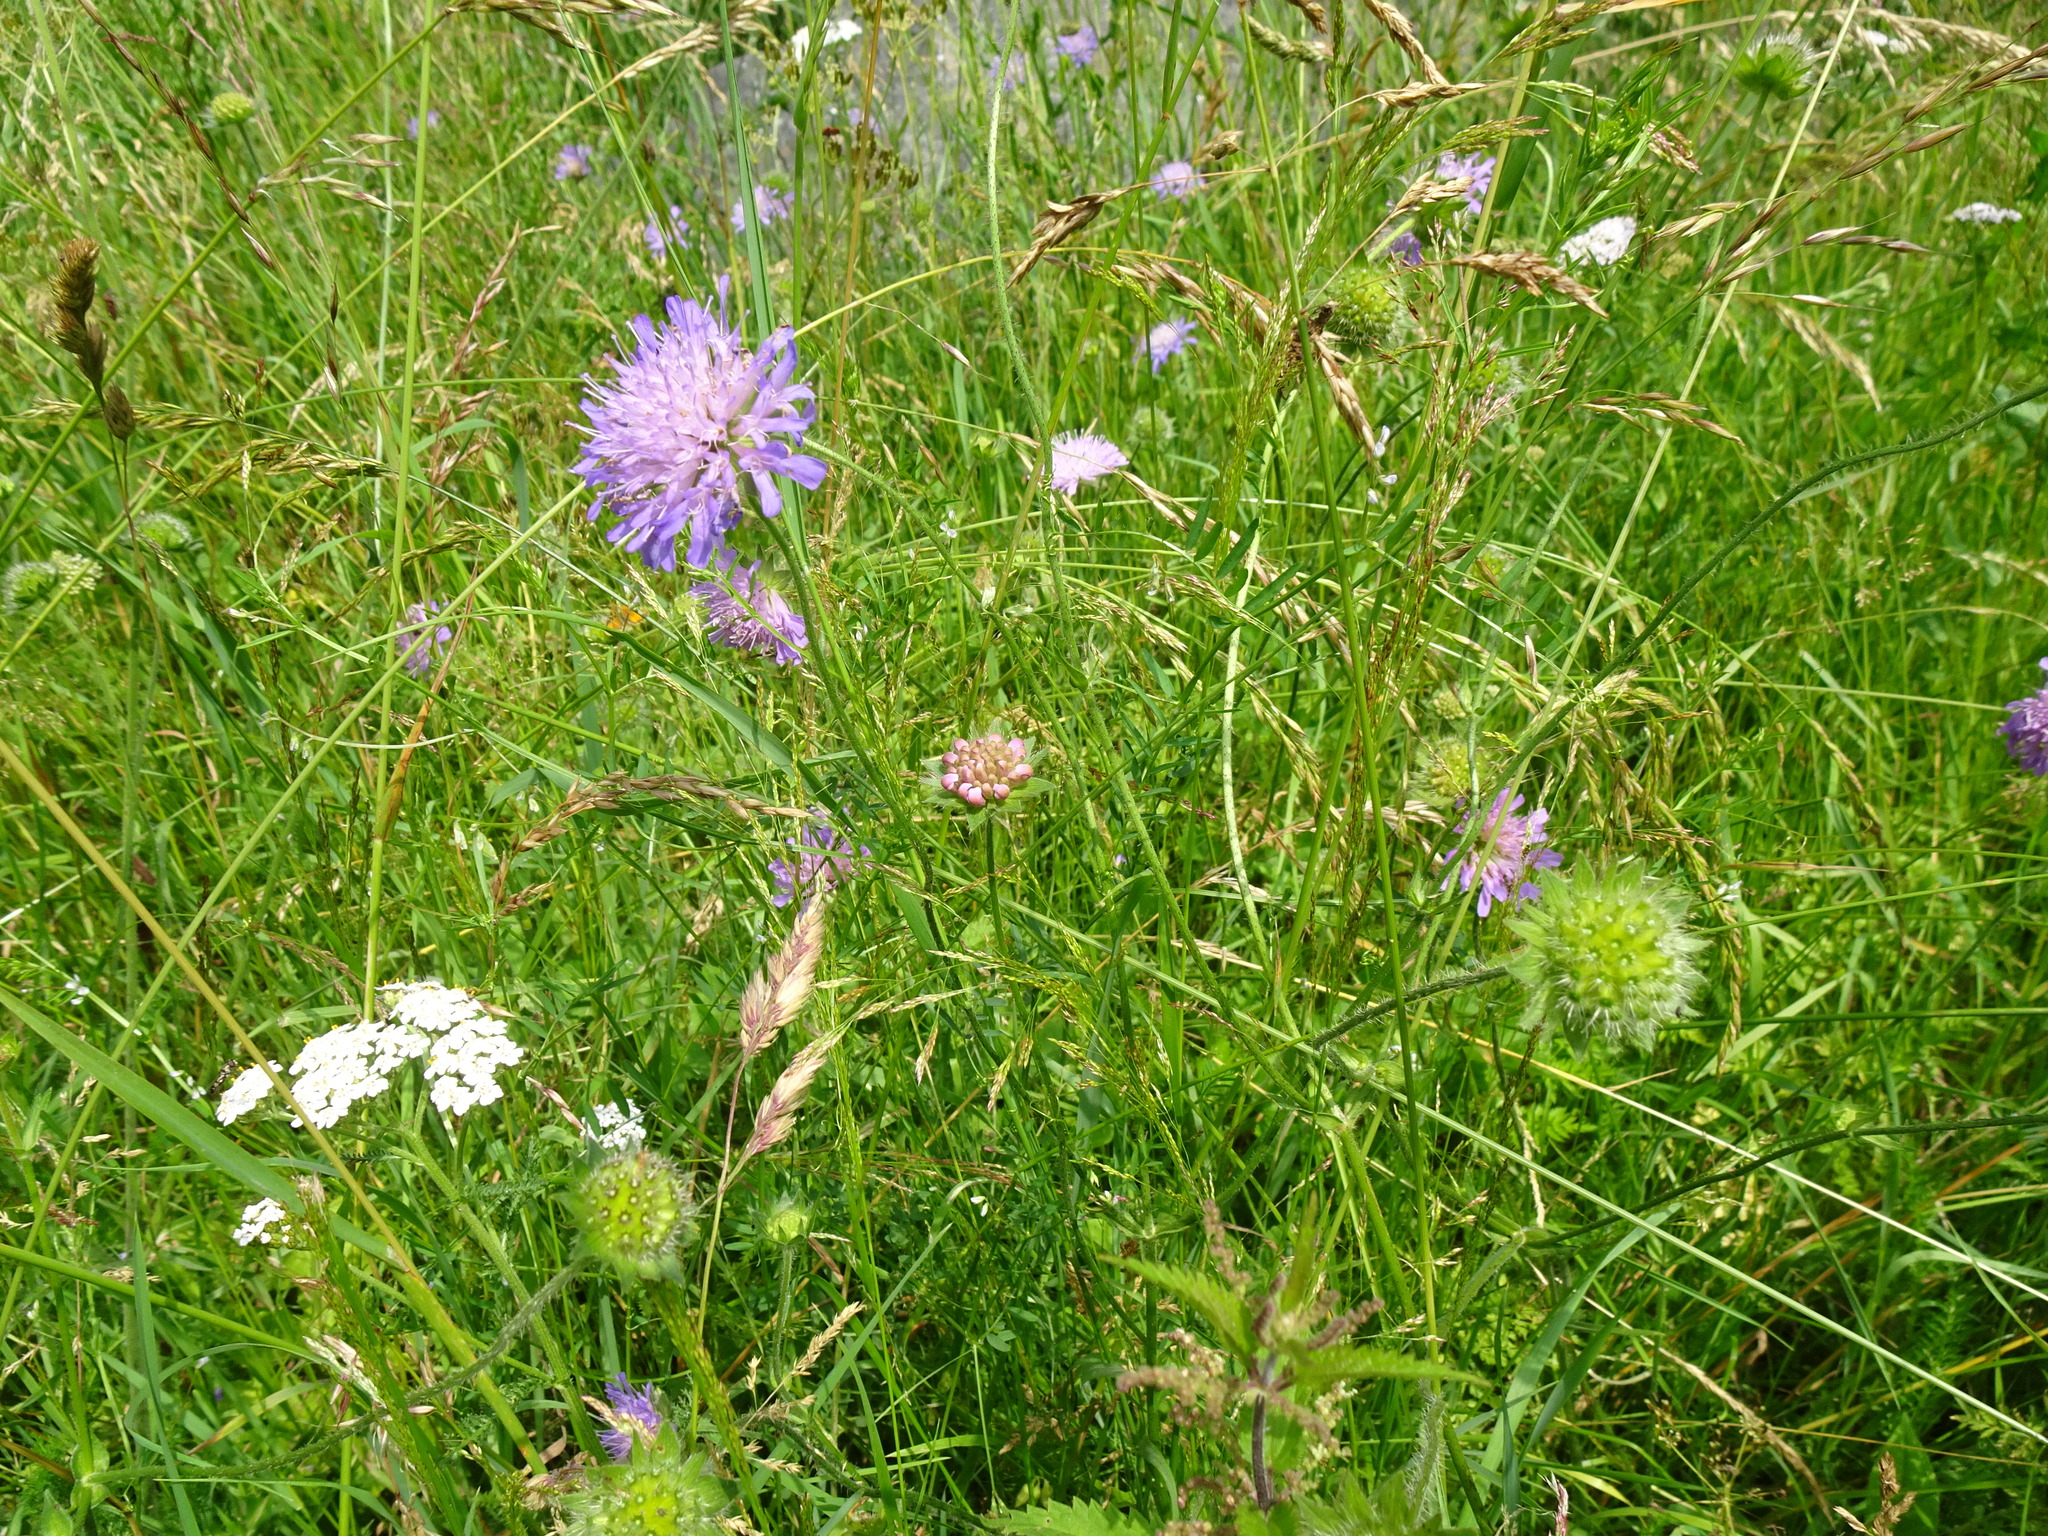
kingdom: Plantae
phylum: Tracheophyta
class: Magnoliopsida
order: Dipsacales
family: Caprifoliaceae
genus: Knautia
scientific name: Knautia arvensis
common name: Field scabiosa
